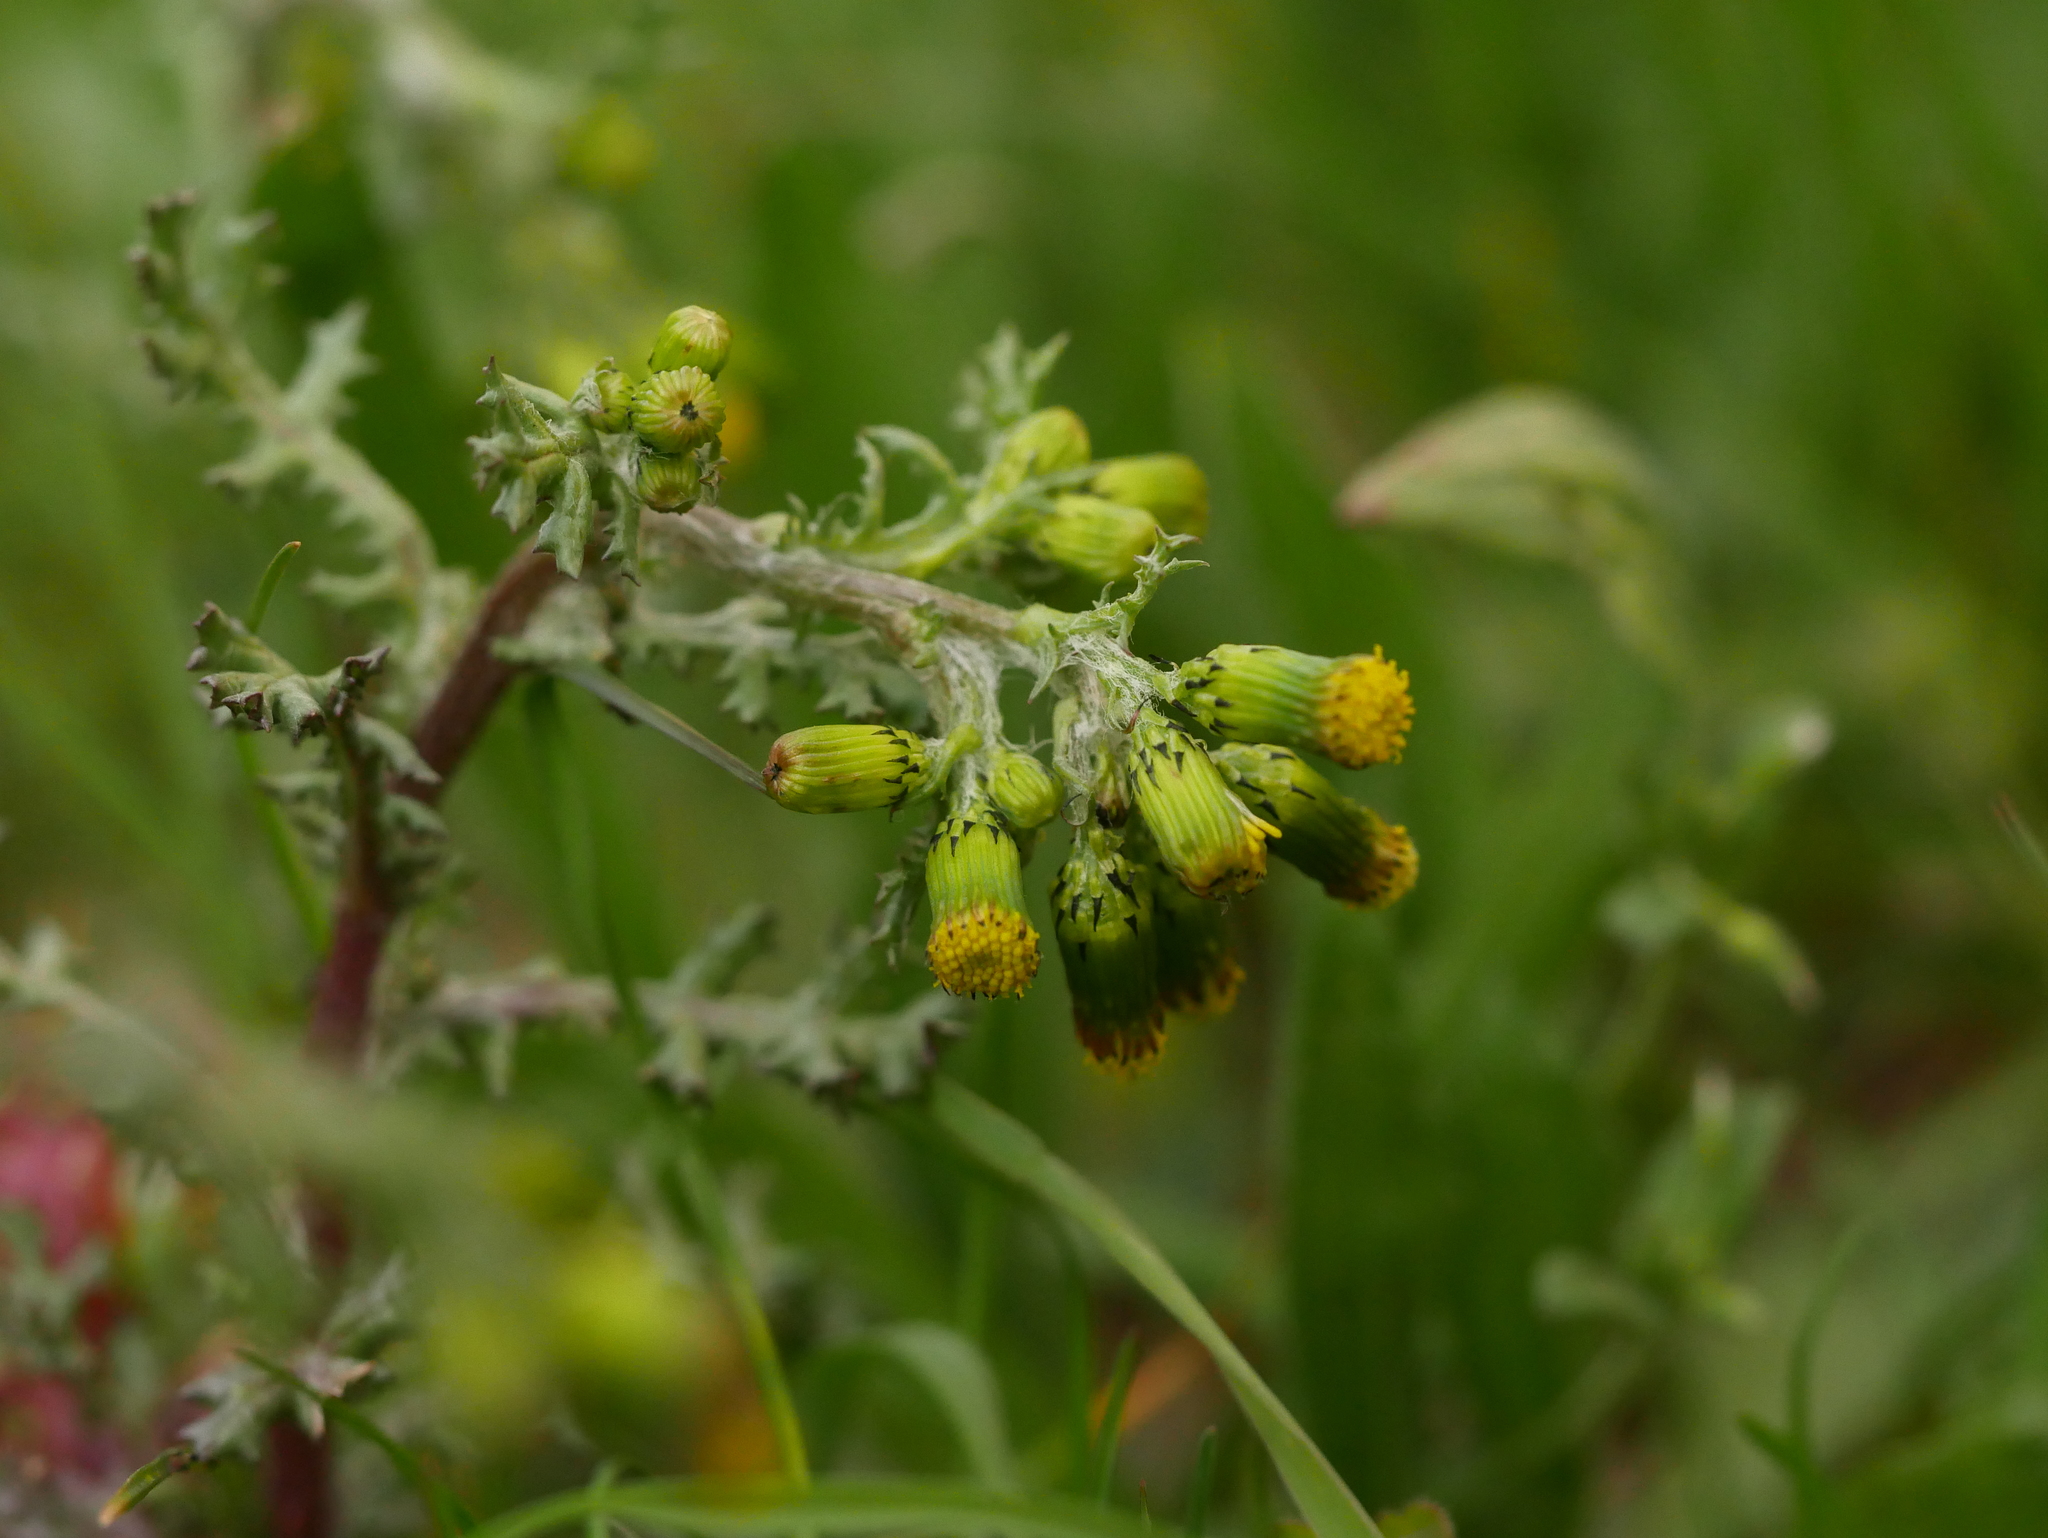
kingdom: Plantae
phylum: Tracheophyta
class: Magnoliopsida
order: Asterales
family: Asteraceae
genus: Senecio
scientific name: Senecio vulgaris
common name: Old-man-in-the-spring
